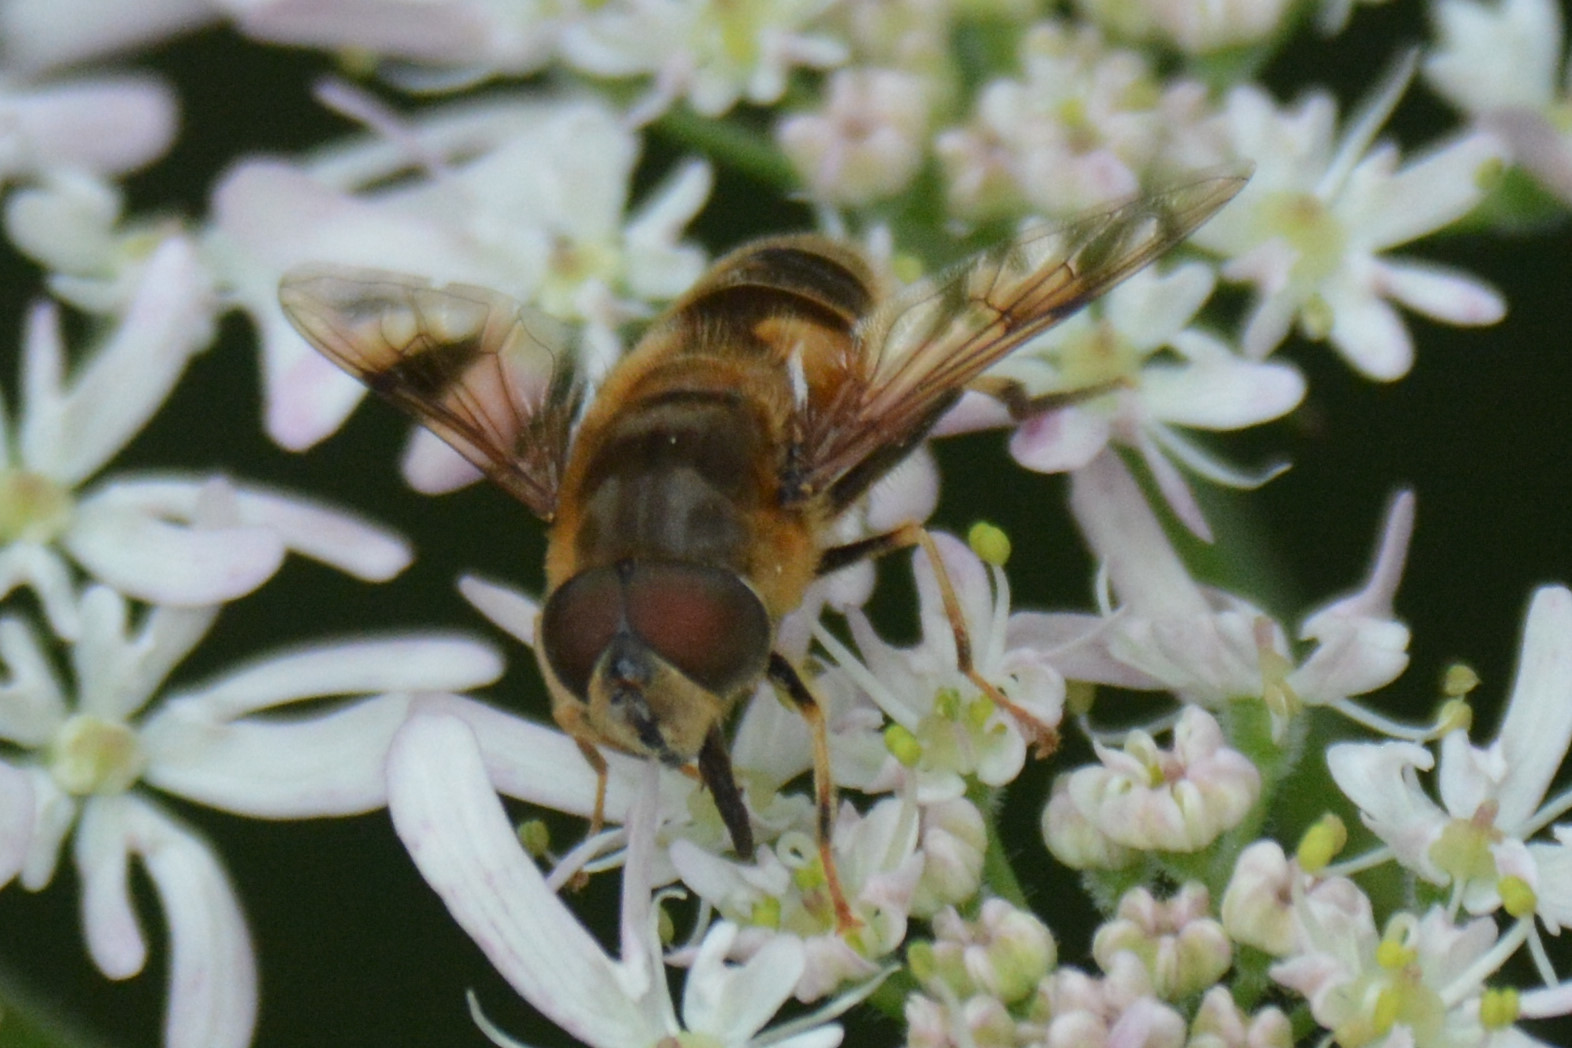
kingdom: Animalia
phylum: Arthropoda
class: Insecta
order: Diptera
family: Syrphidae
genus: Eristalis
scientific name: Eristalis pertinax
